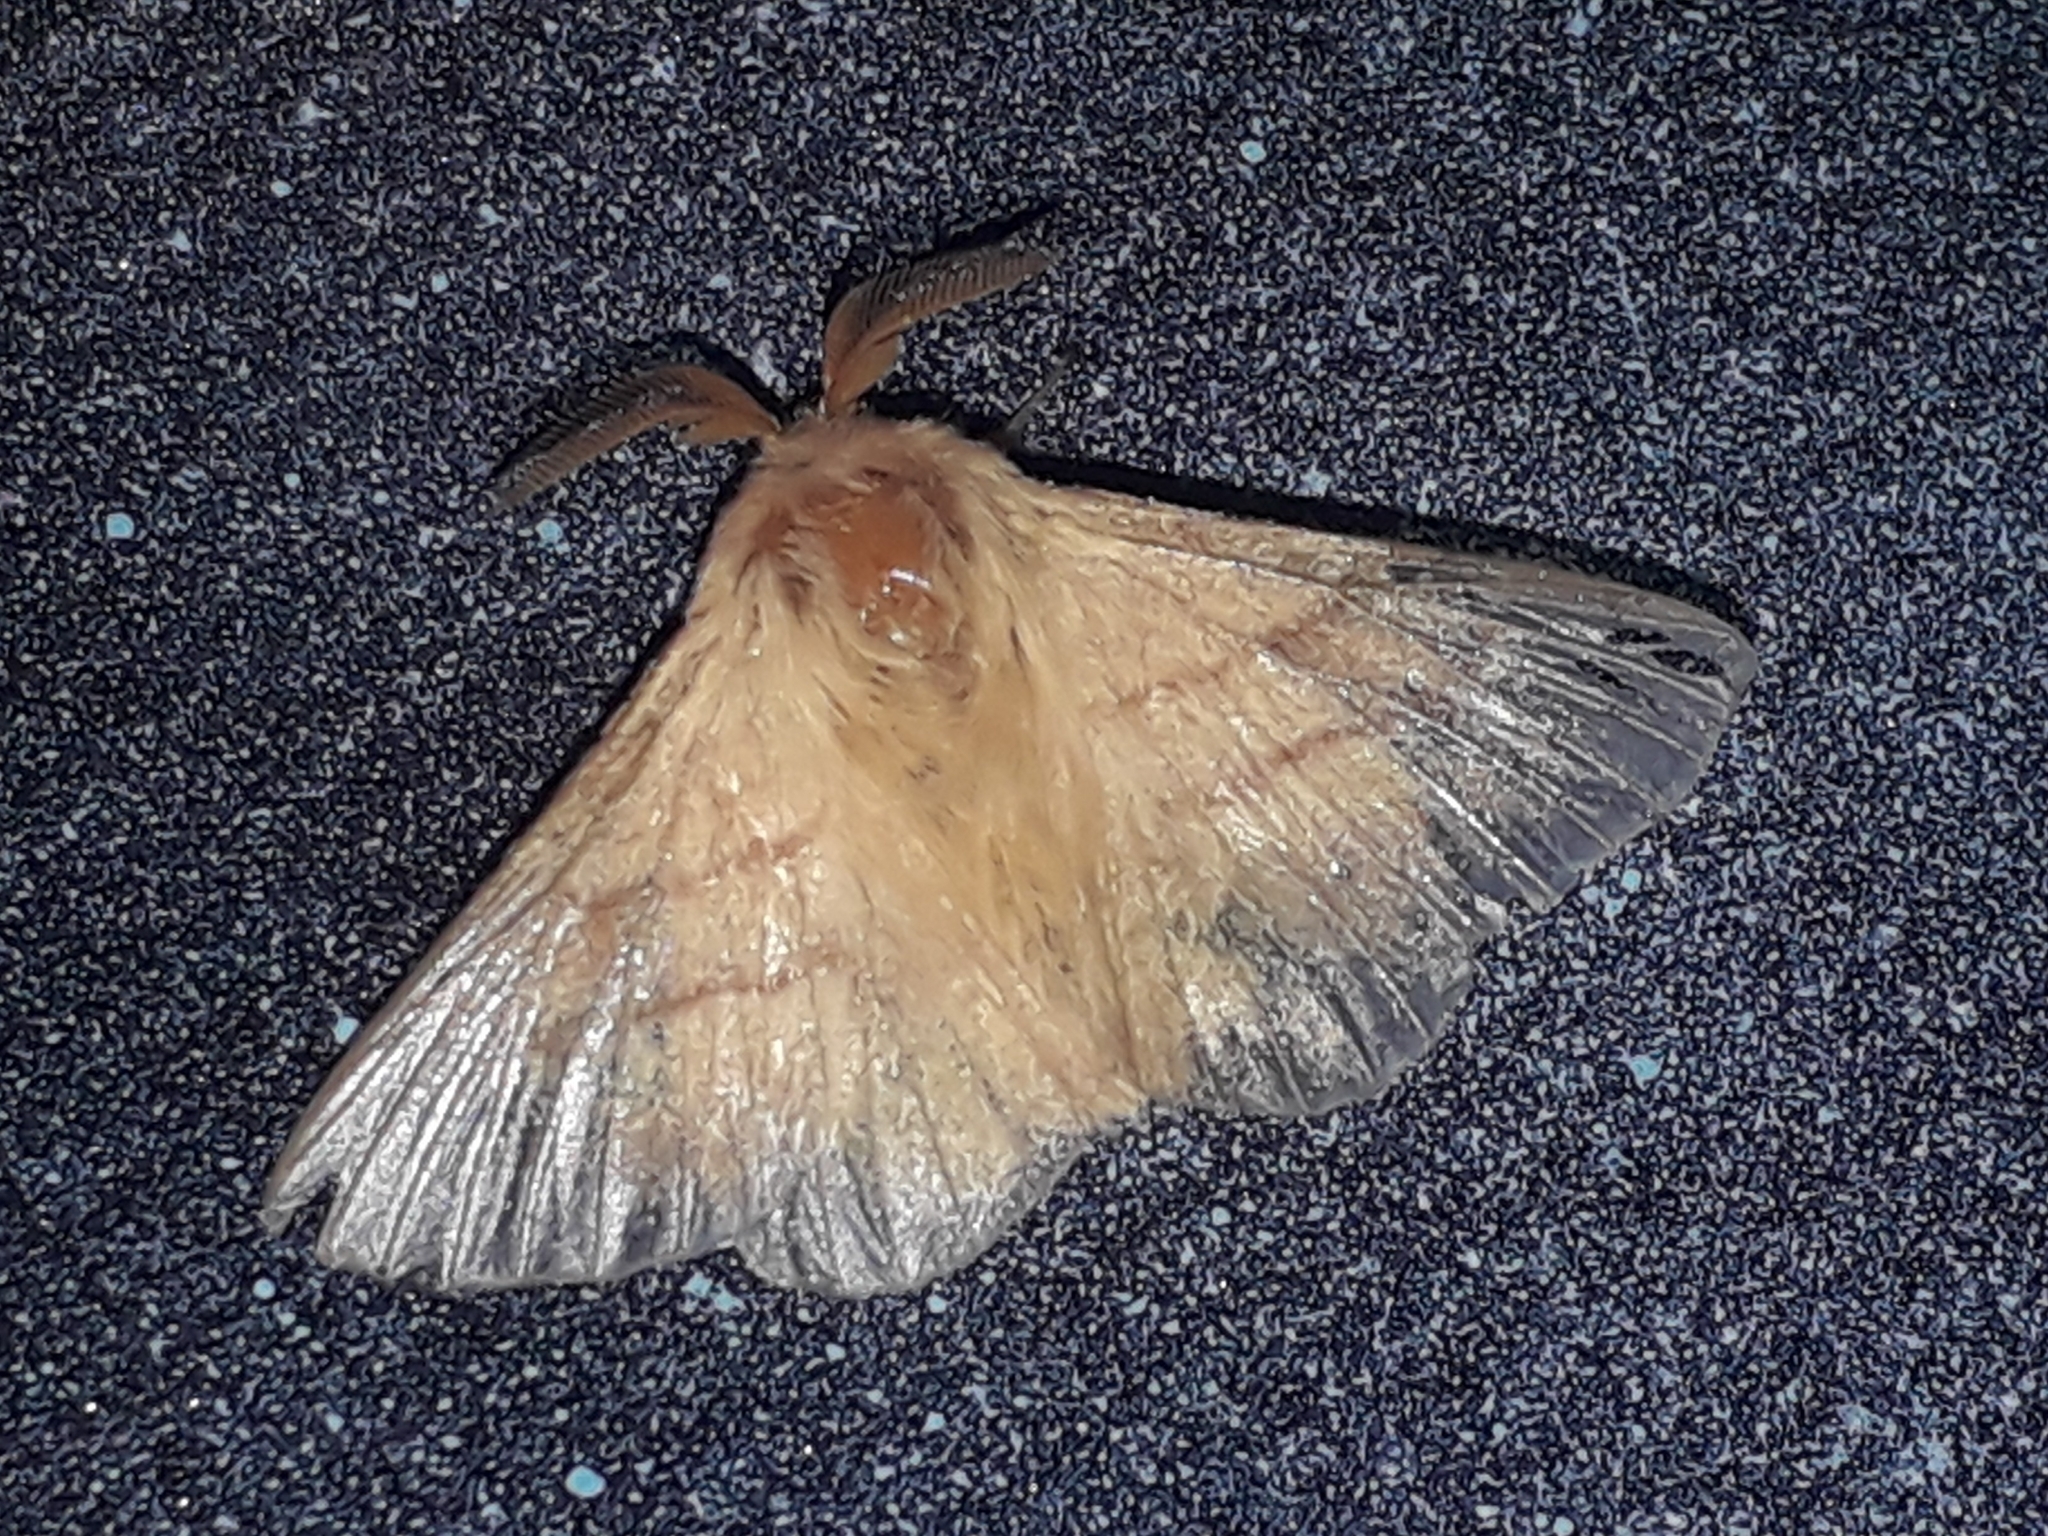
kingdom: Animalia
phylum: Arthropoda
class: Insecta
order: Lepidoptera
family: Lasiocampidae
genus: Malacosoma
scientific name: Malacosoma neustria
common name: The lackey
